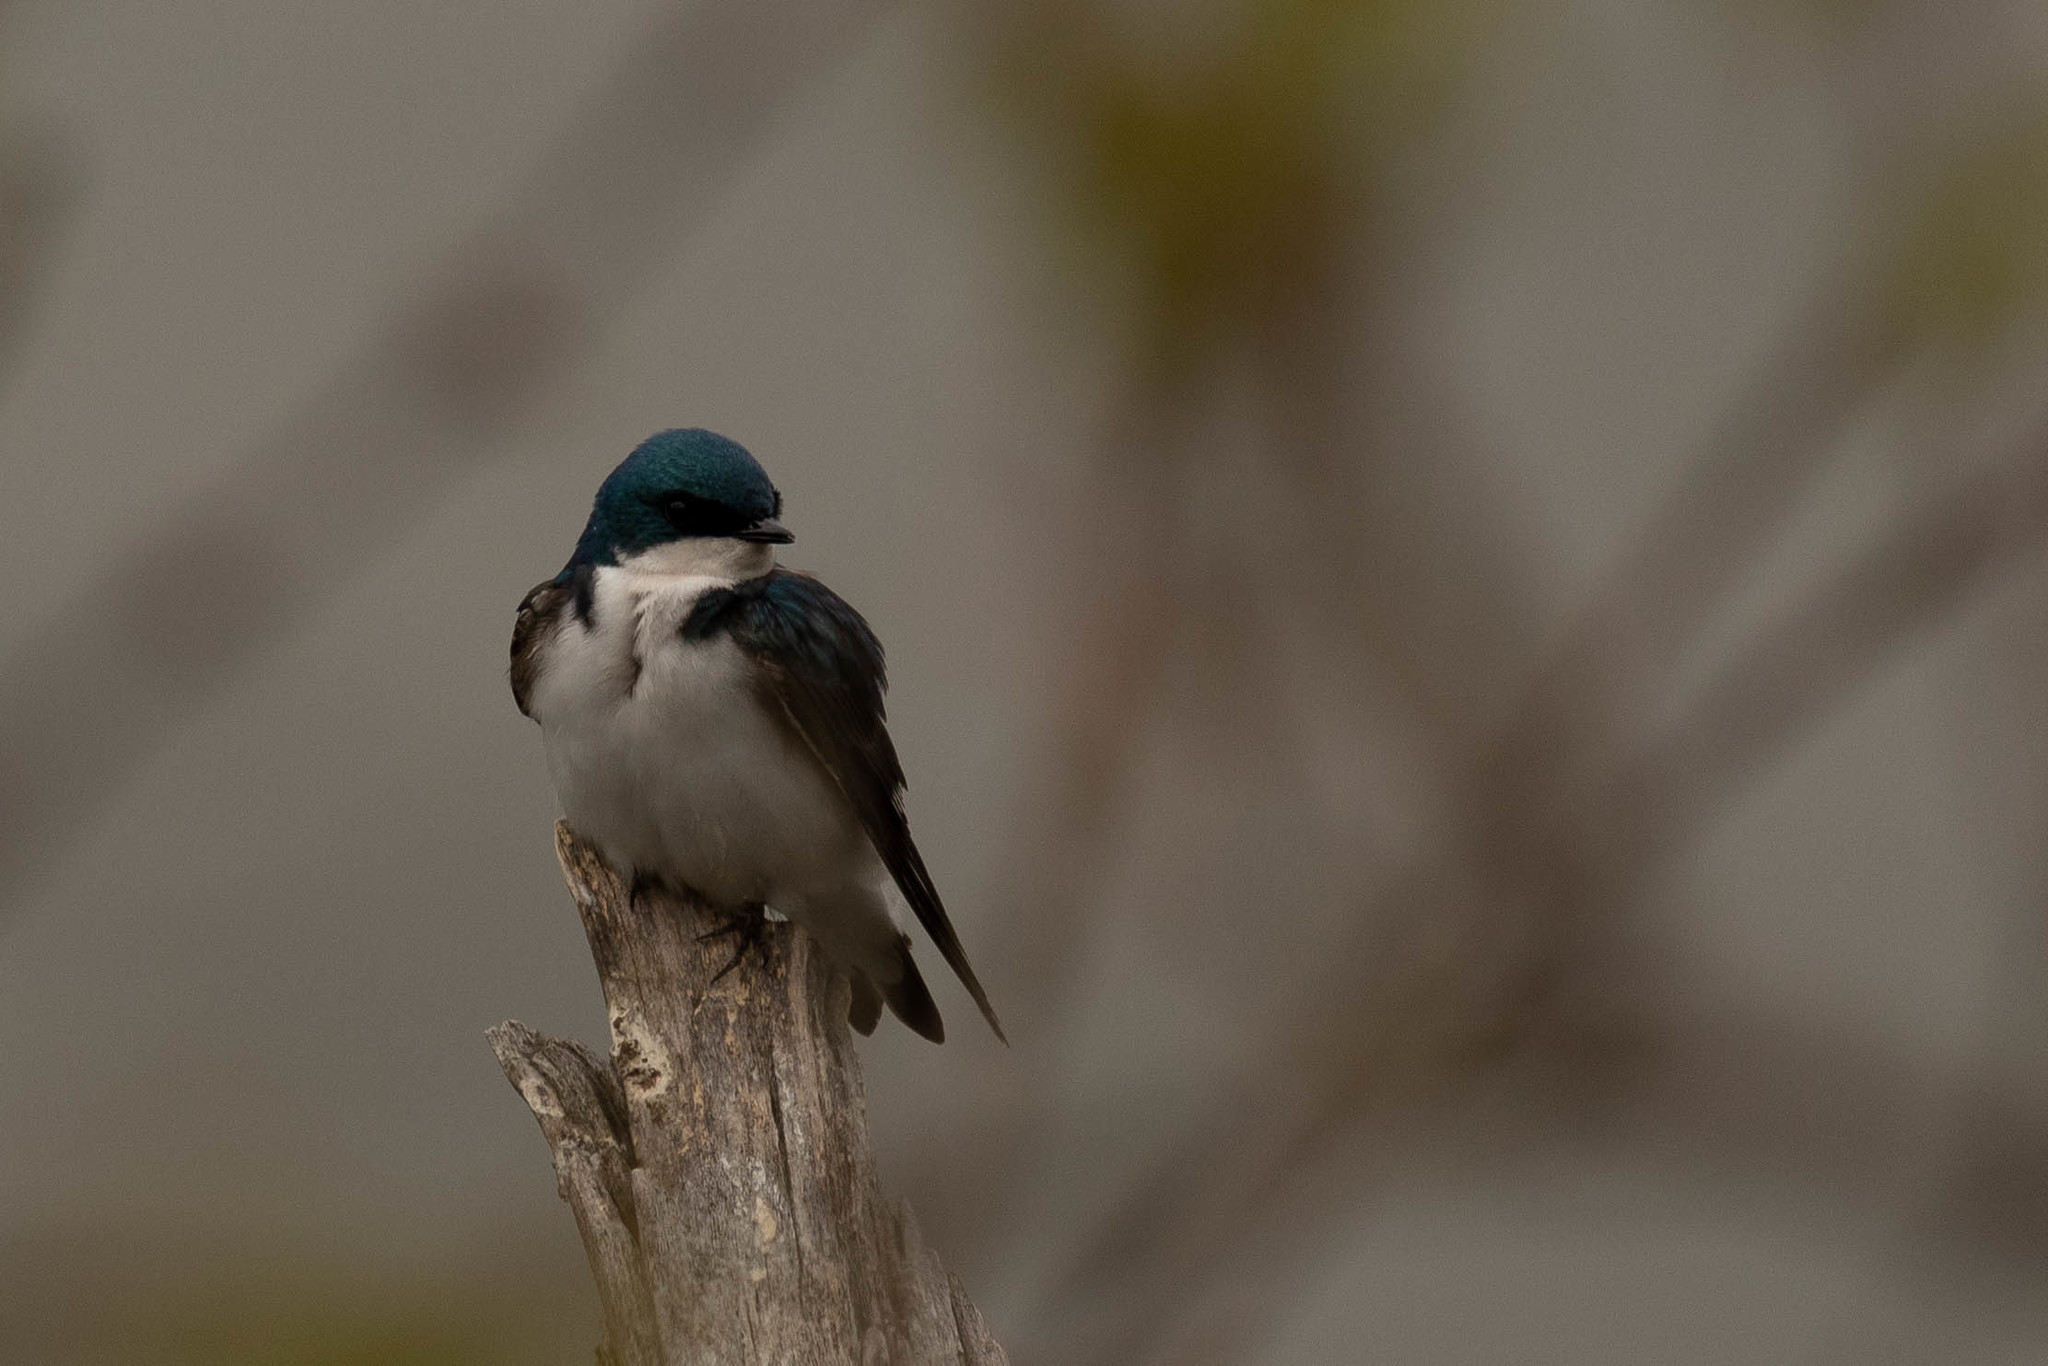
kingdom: Animalia
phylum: Chordata
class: Aves
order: Passeriformes
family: Hirundinidae
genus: Tachycineta
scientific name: Tachycineta bicolor
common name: Tree swallow
